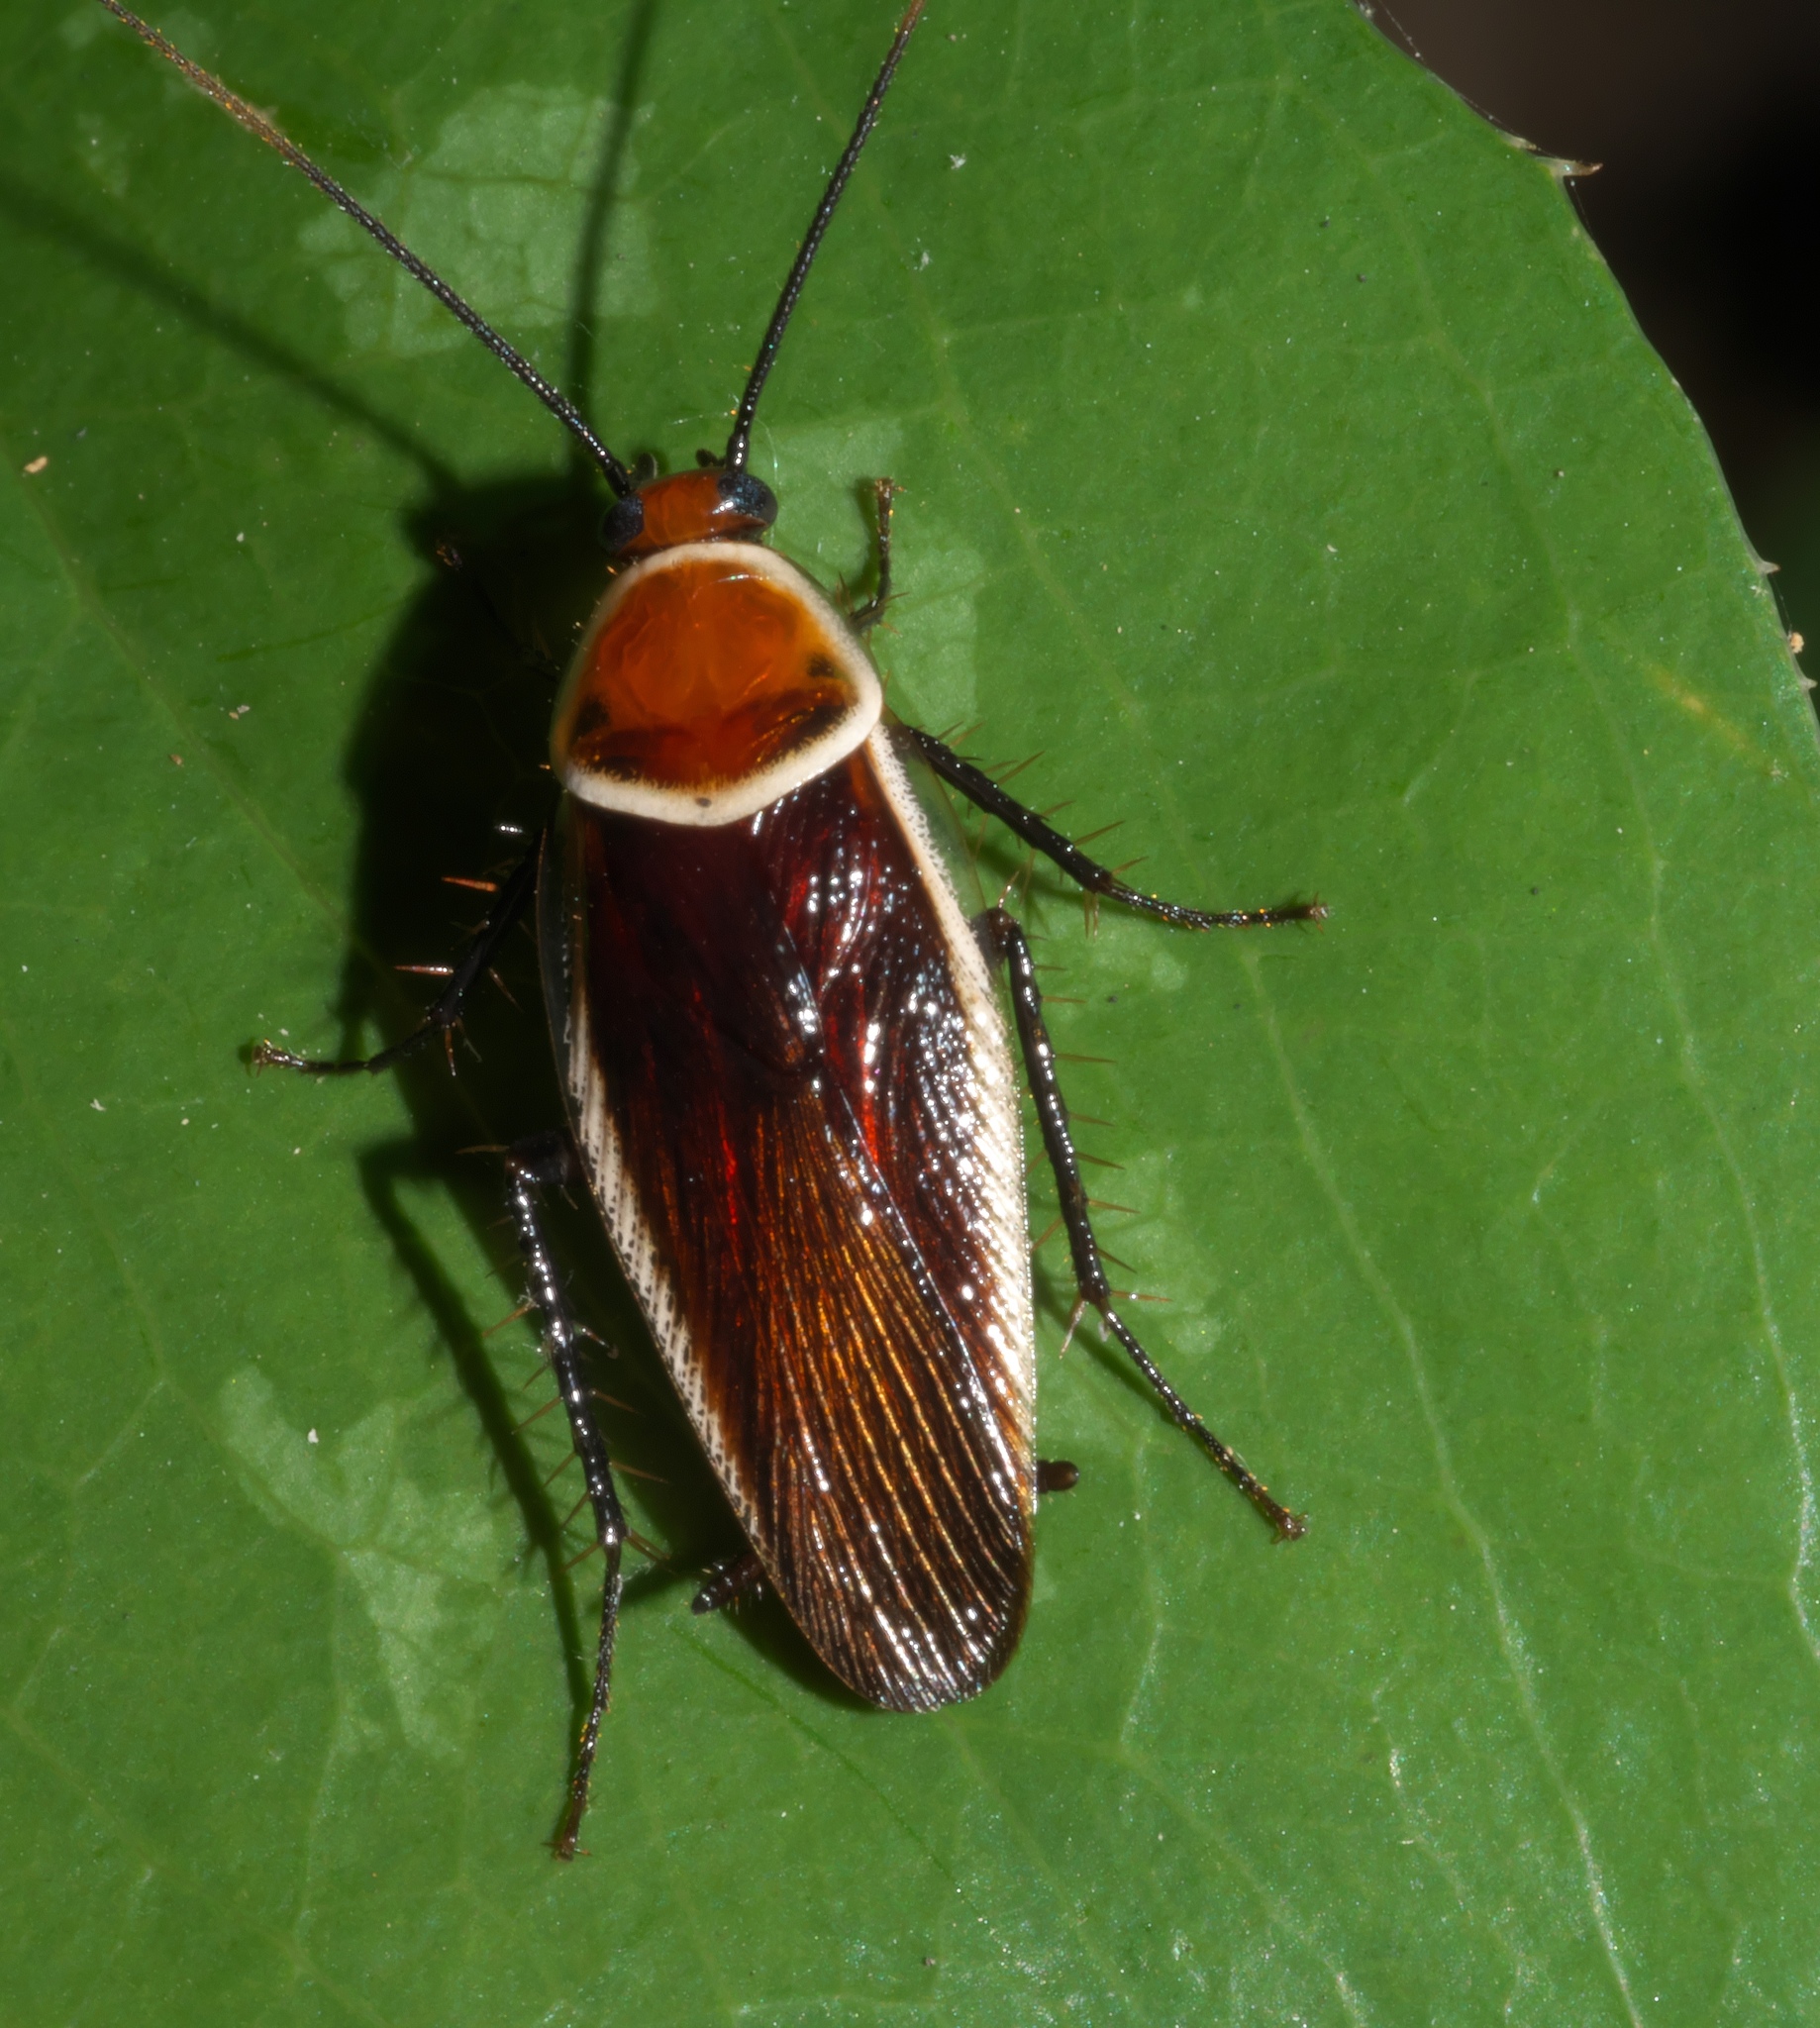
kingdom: Animalia
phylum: Arthropoda
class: Insecta
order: Blattodea
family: Ectobiidae
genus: Pseudomops
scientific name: Pseudomops septentrionalis
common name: Pale-bordered field cockroach
